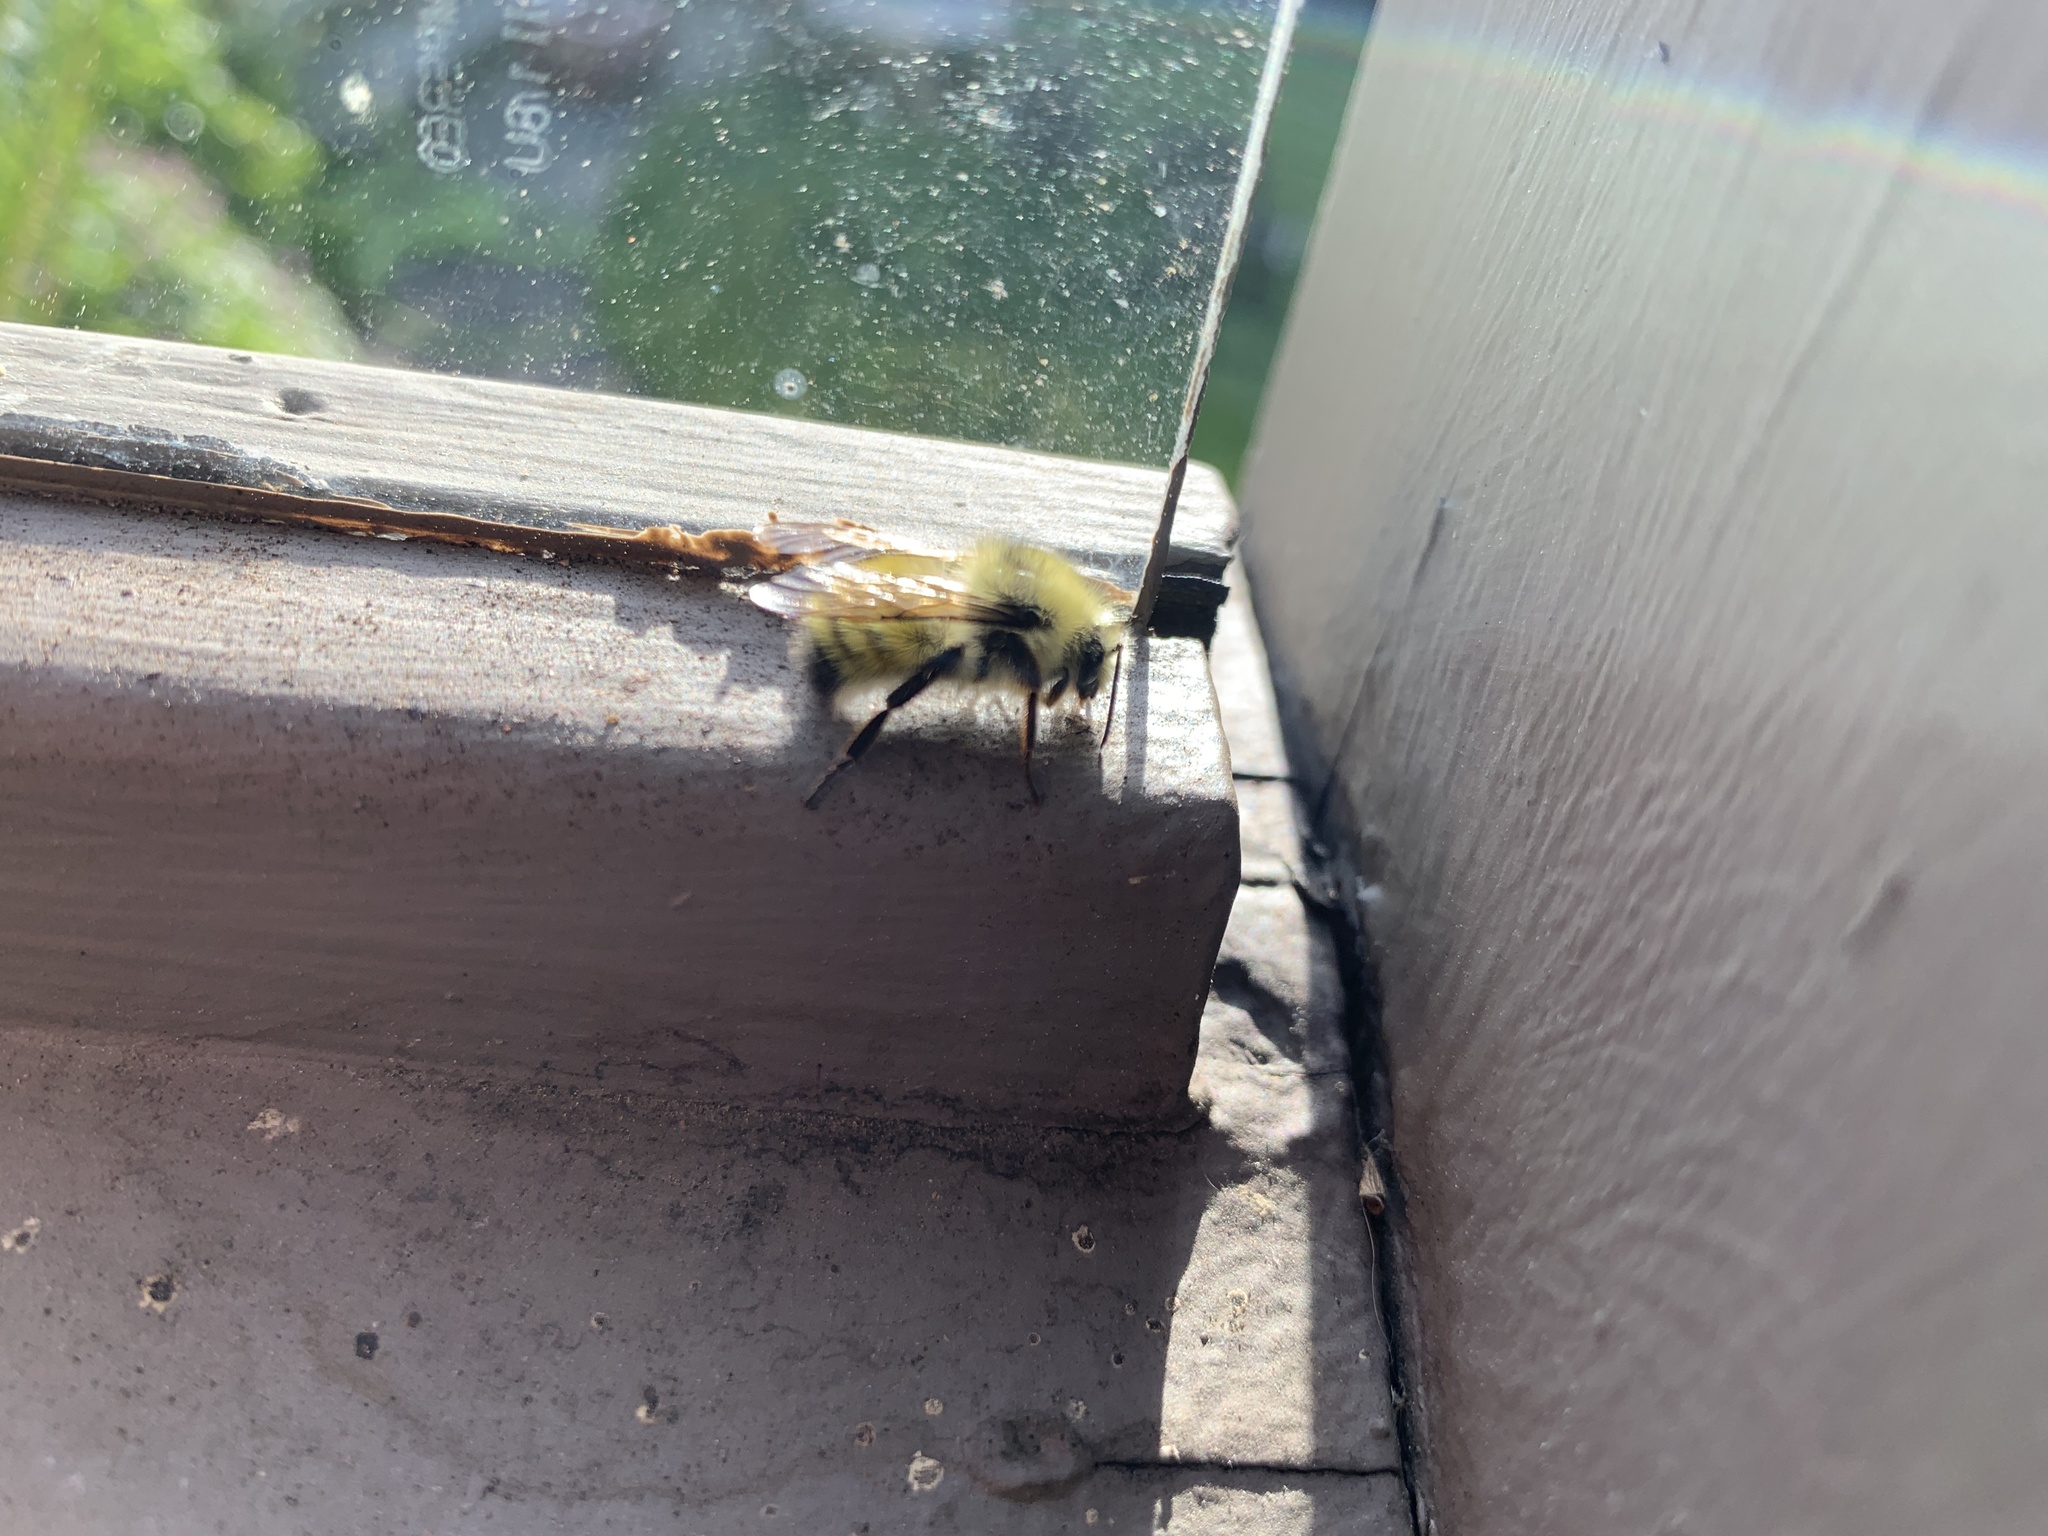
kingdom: Animalia
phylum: Arthropoda
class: Insecta
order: Hymenoptera
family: Apidae
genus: Bombus
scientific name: Bombus flavifrons
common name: Yellow head bumble bee
